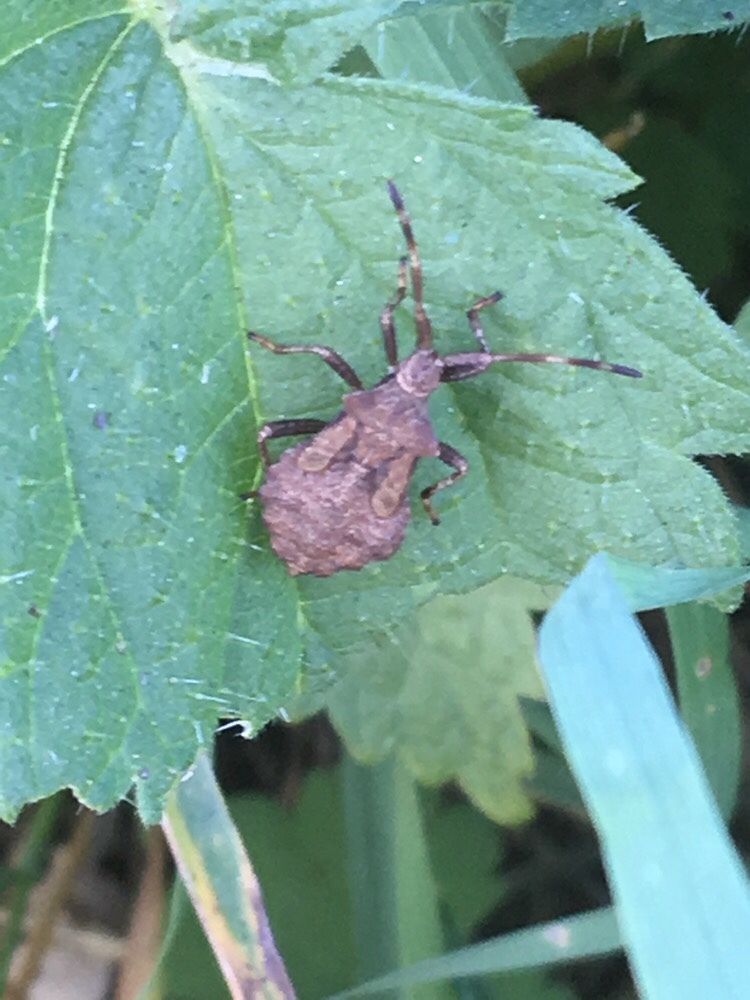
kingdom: Animalia
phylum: Arthropoda
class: Insecta
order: Hemiptera
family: Coreidae
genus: Coreus
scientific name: Coreus marginatus
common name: Dock bug
